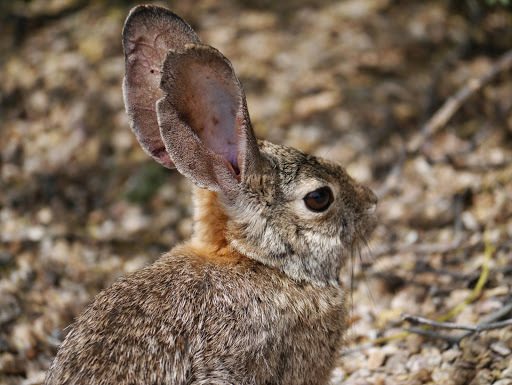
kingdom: Animalia
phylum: Chordata
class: Mammalia
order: Lagomorpha
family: Leporidae
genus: Sylvilagus
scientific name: Sylvilagus audubonii
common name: Desert cottontail
